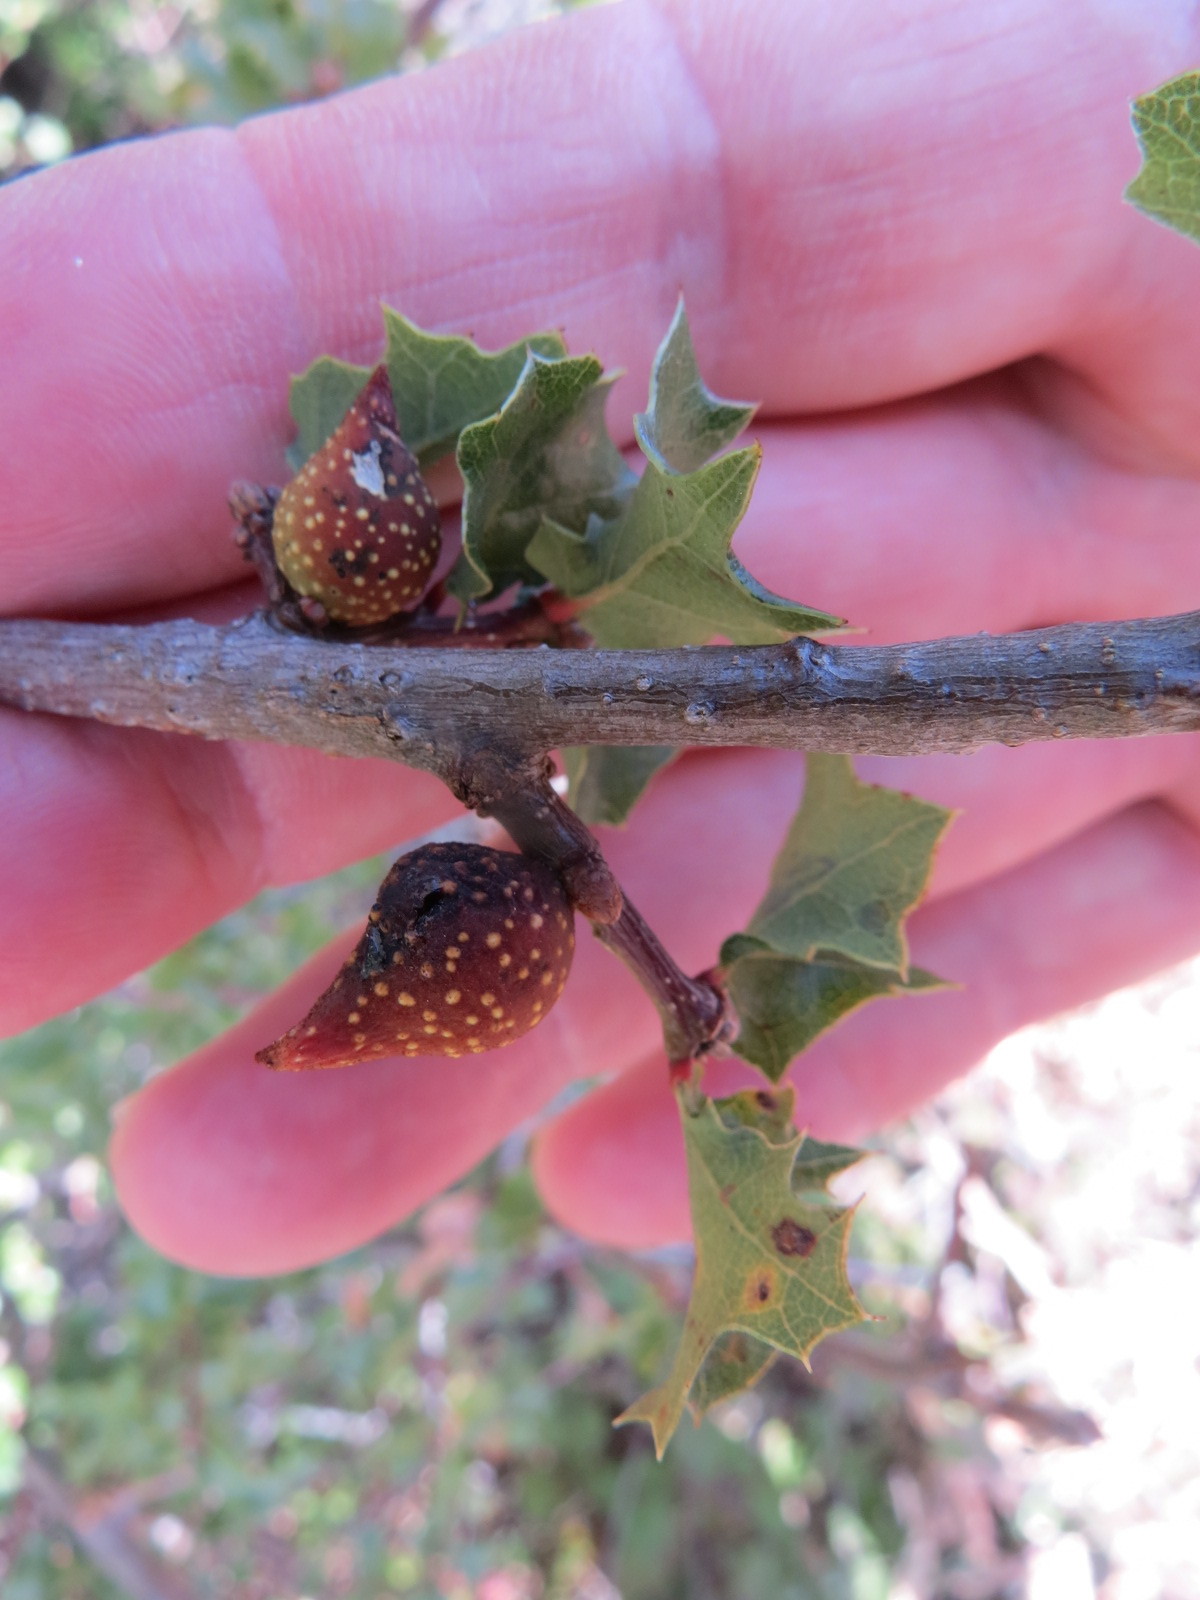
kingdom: Animalia
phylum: Arthropoda
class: Insecta
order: Hymenoptera
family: Cynipidae
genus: Burnettweldia
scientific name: Burnettweldia
